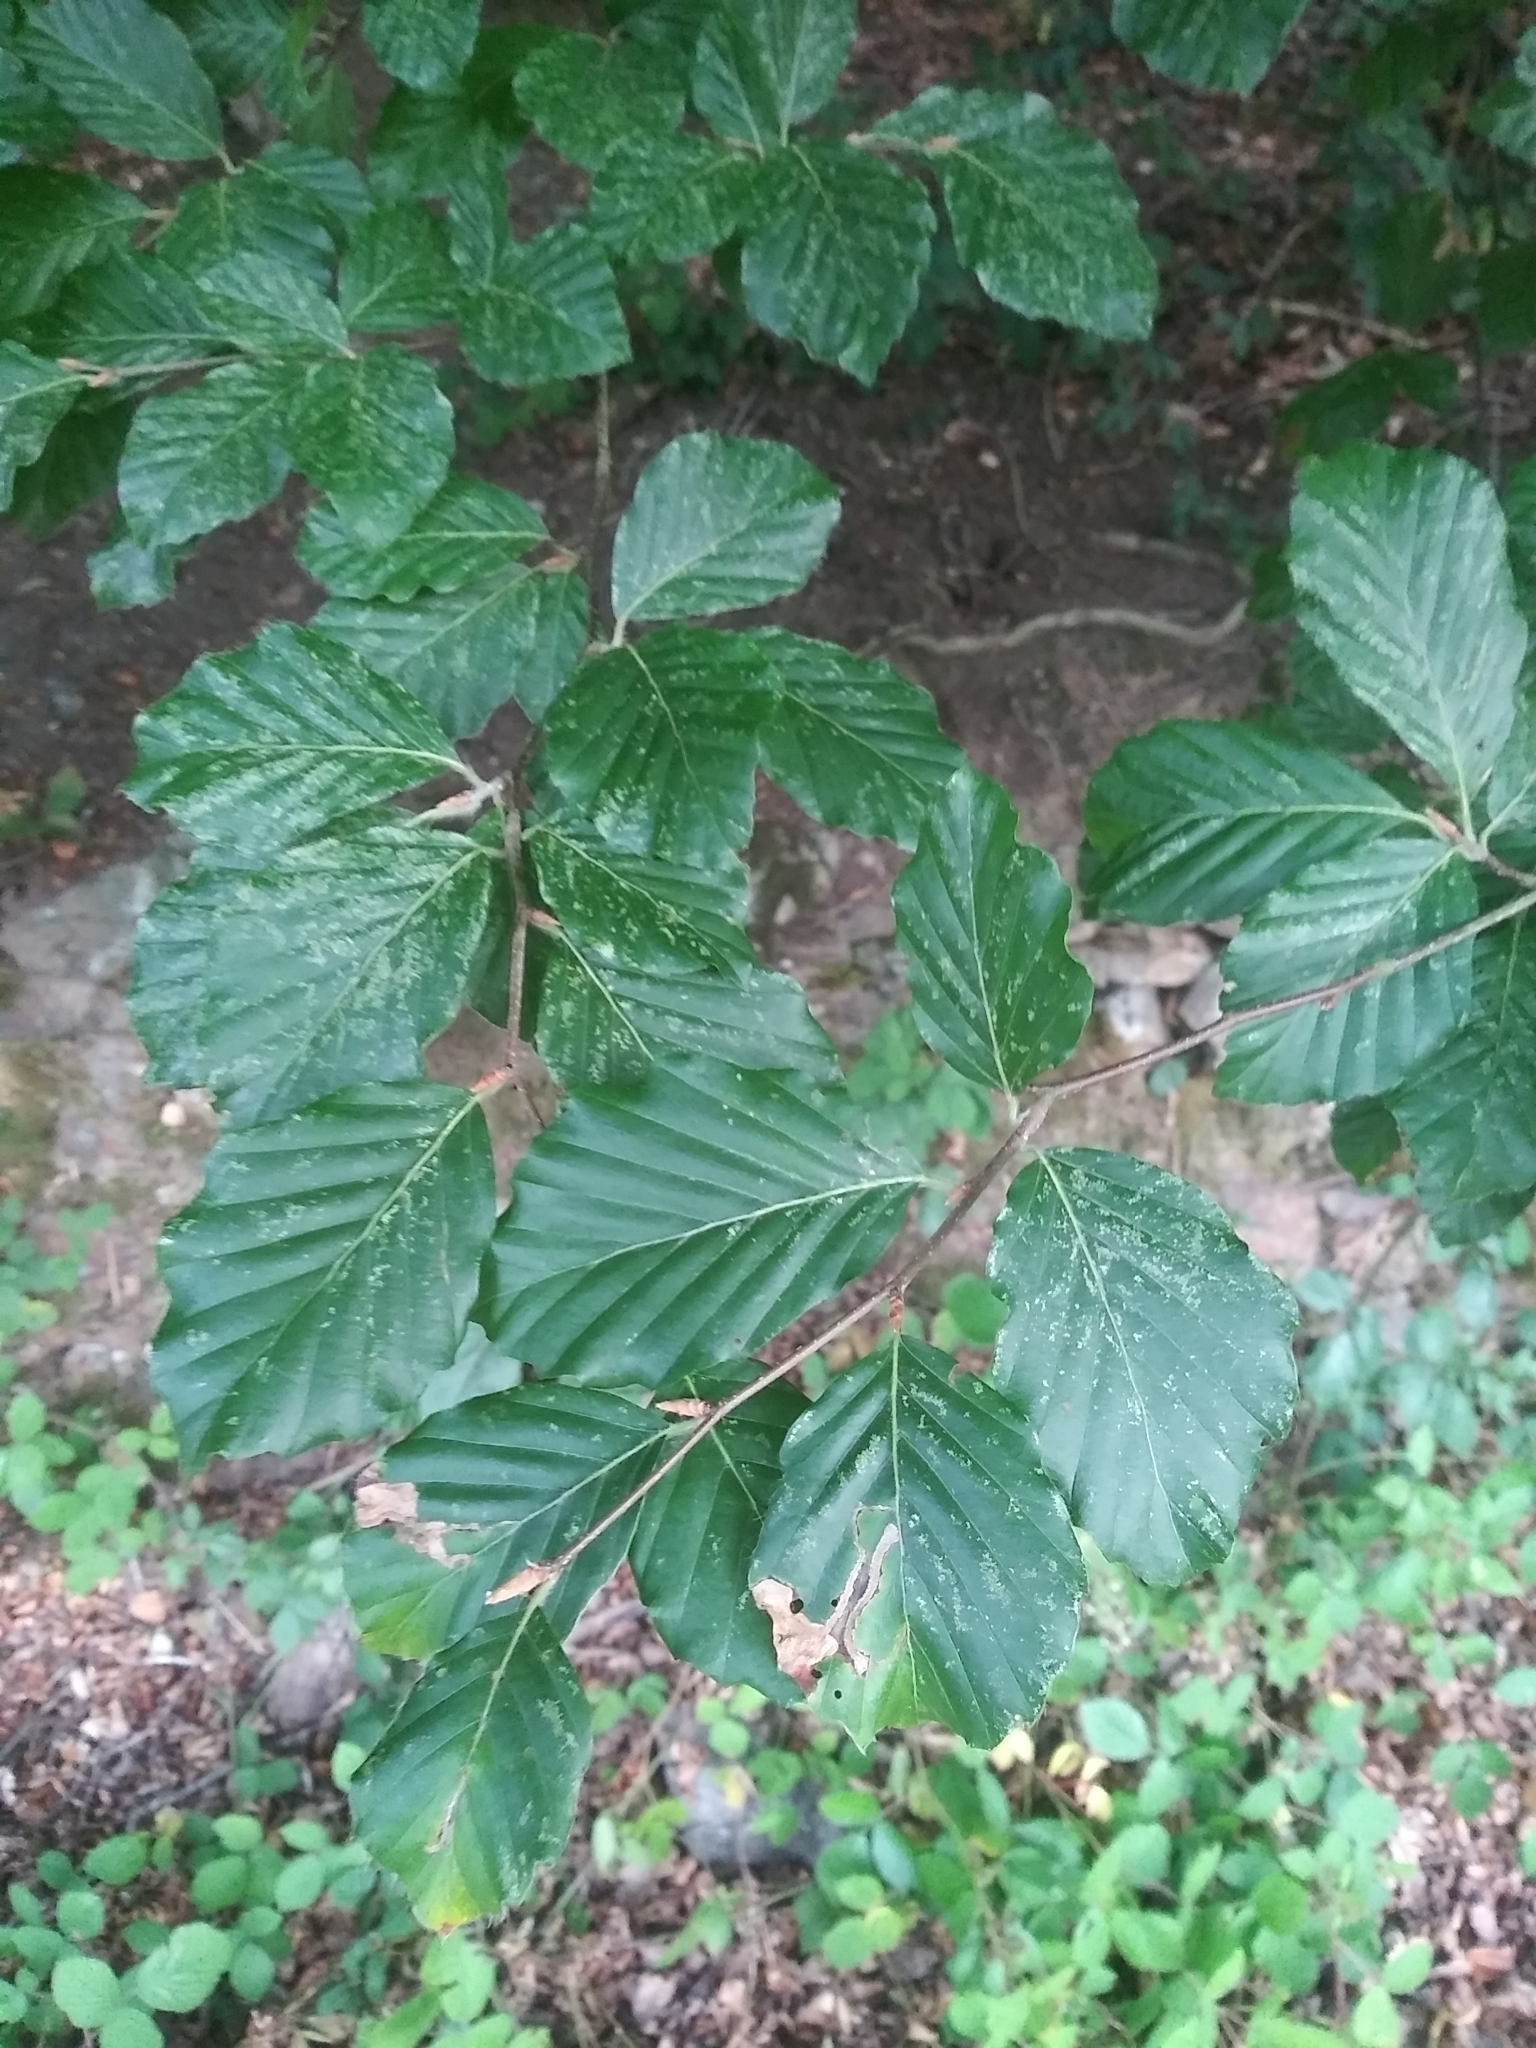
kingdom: Plantae
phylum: Tracheophyta
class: Magnoliopsida
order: Fagales
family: Fagaceae
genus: Fagus
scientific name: Fagus sylvatica
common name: Beech
